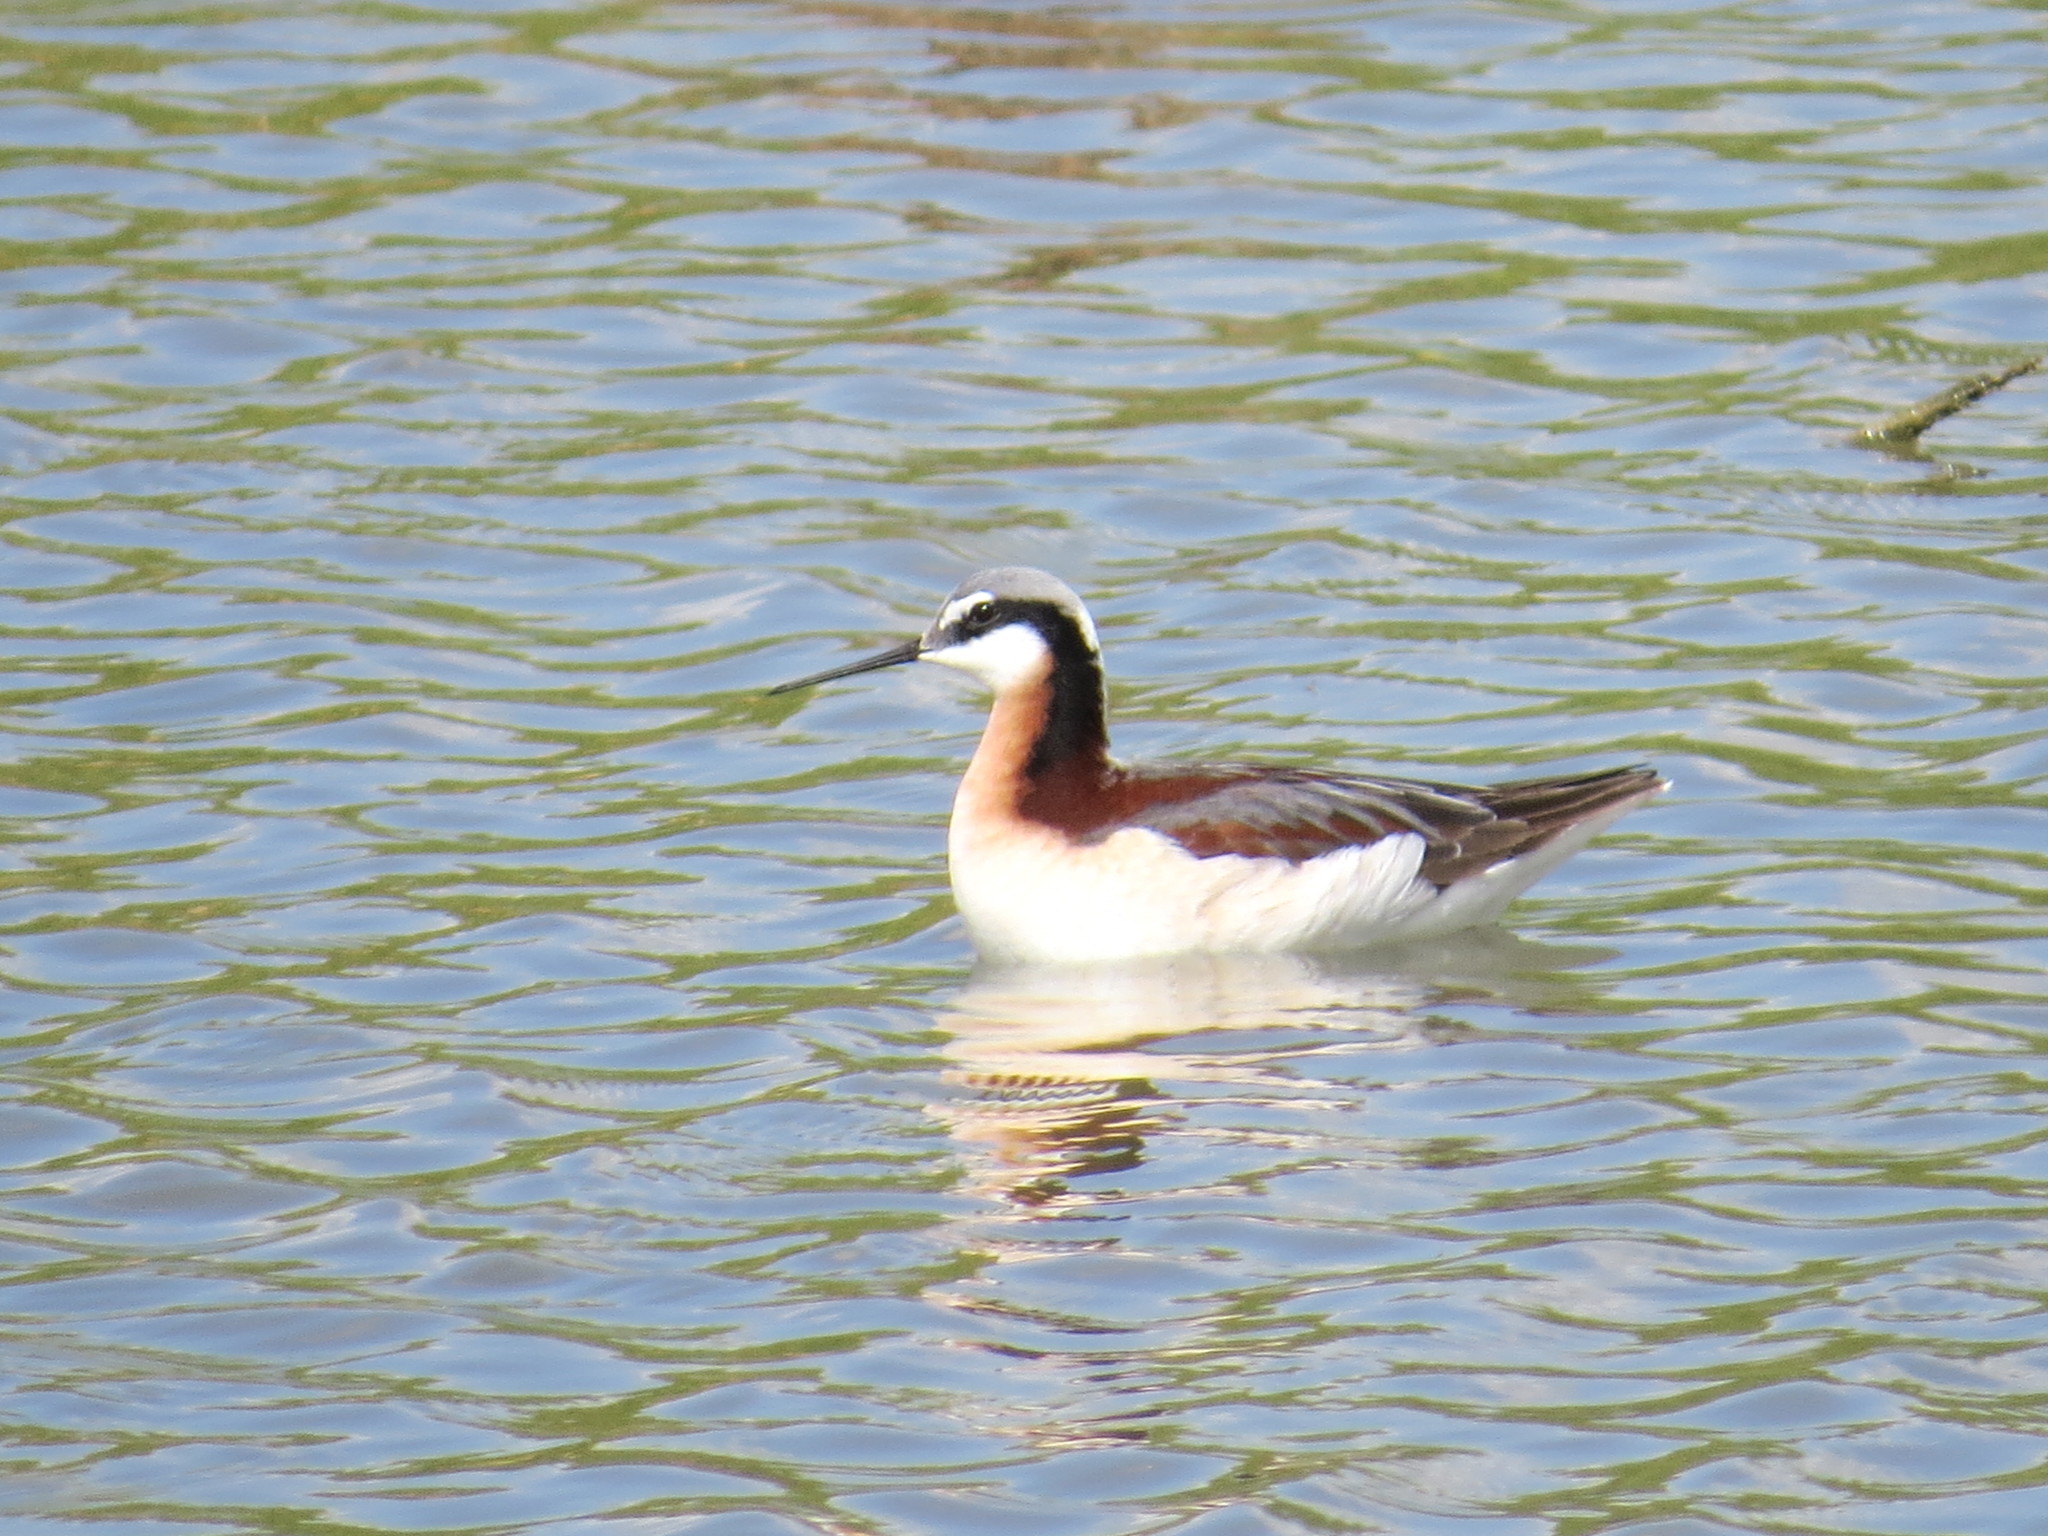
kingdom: Animalia
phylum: Chordata
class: Aves
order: Charadriiformes
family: Scolopacidae
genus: Phalaropus
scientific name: Phalaropus tricolor
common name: Wilson's phalarope
